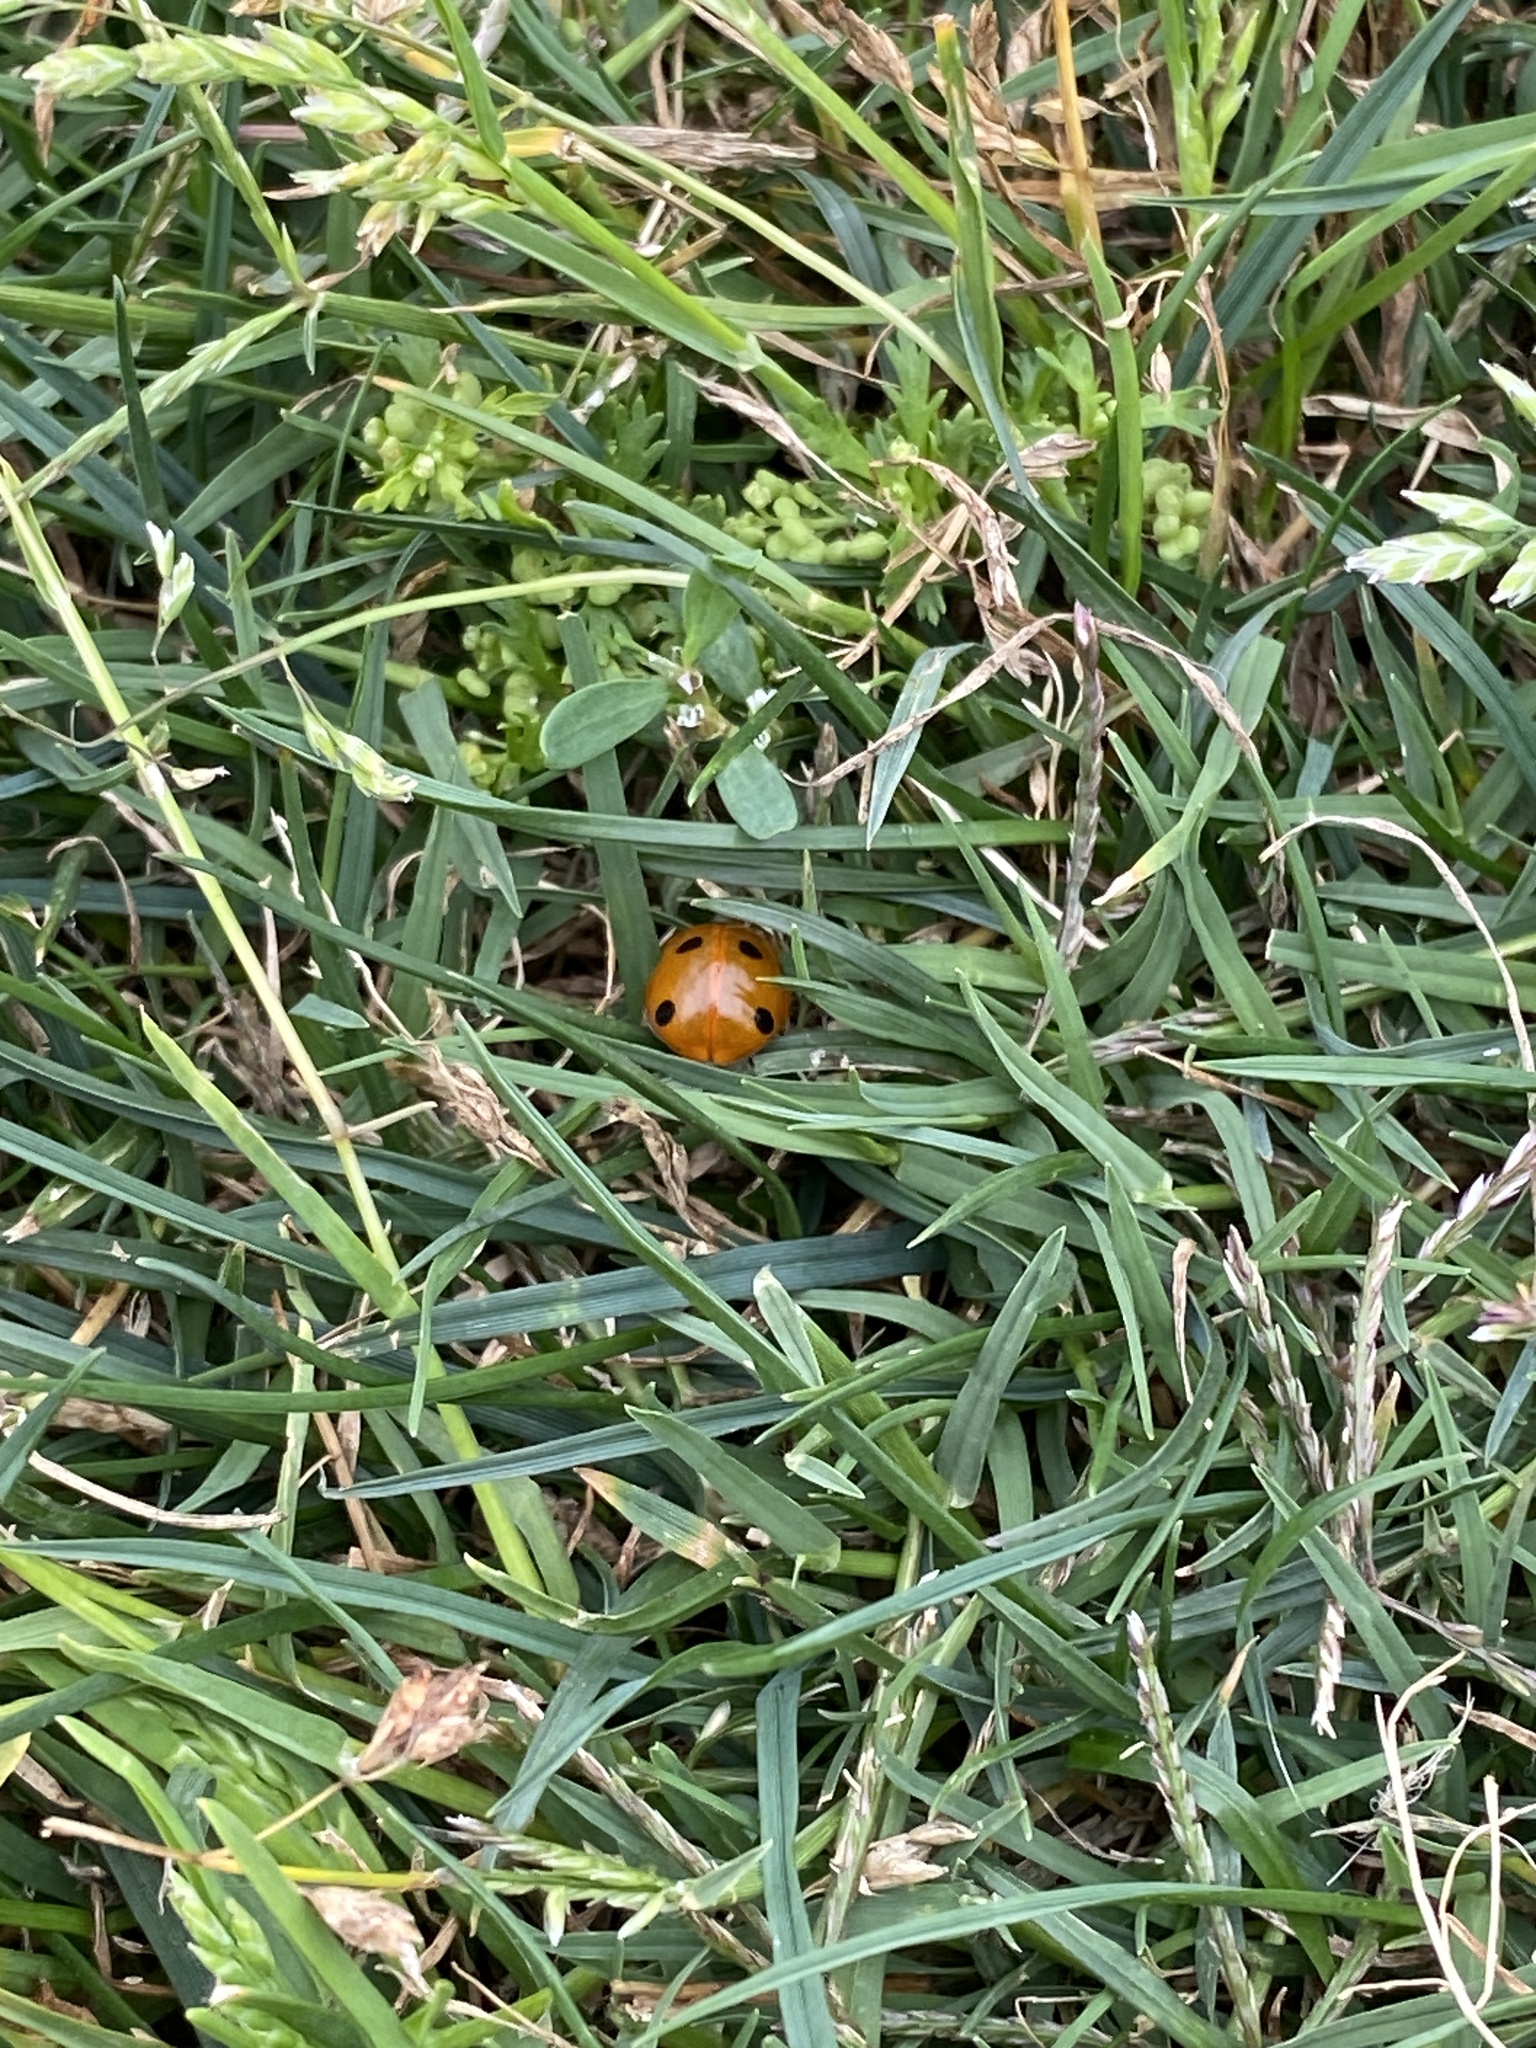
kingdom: Animalia
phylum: Arthropoda
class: Insecta
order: Coleoptera
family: Coccinellidae
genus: Coccinella
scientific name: Coccinella septempunctata
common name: Sevenspotted lady beetle
